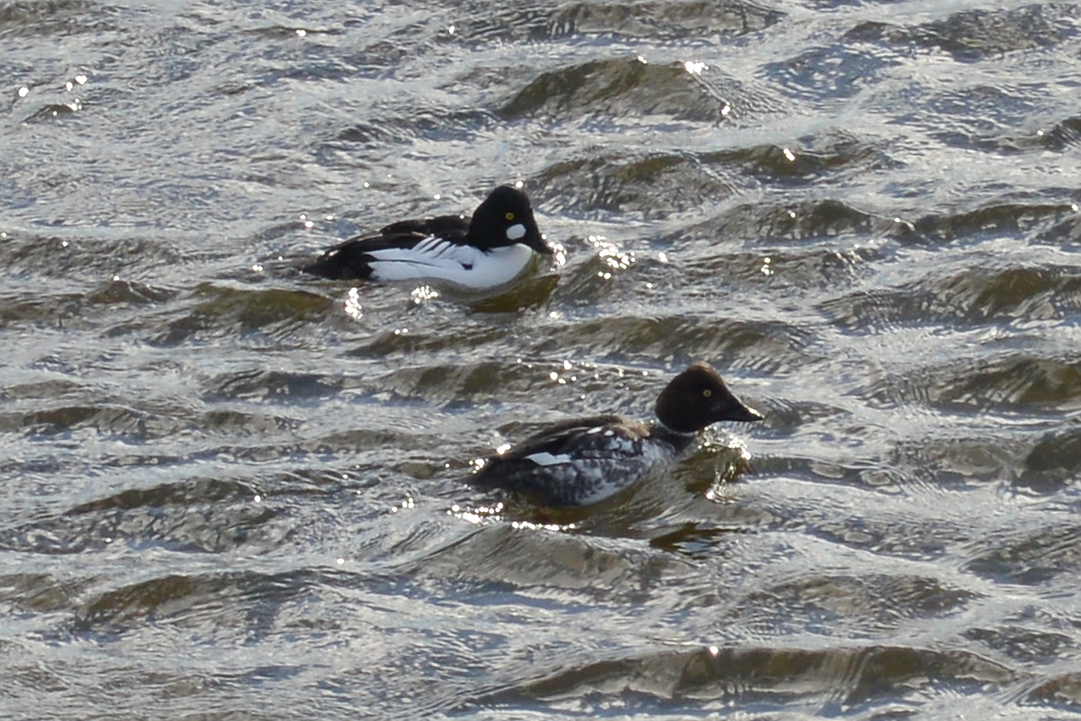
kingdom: Animalia
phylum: Chordata
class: Aves
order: Anseriformes
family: Anatidae
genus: Bucephala
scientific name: Bucephala clangula
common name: Common goldeneye
